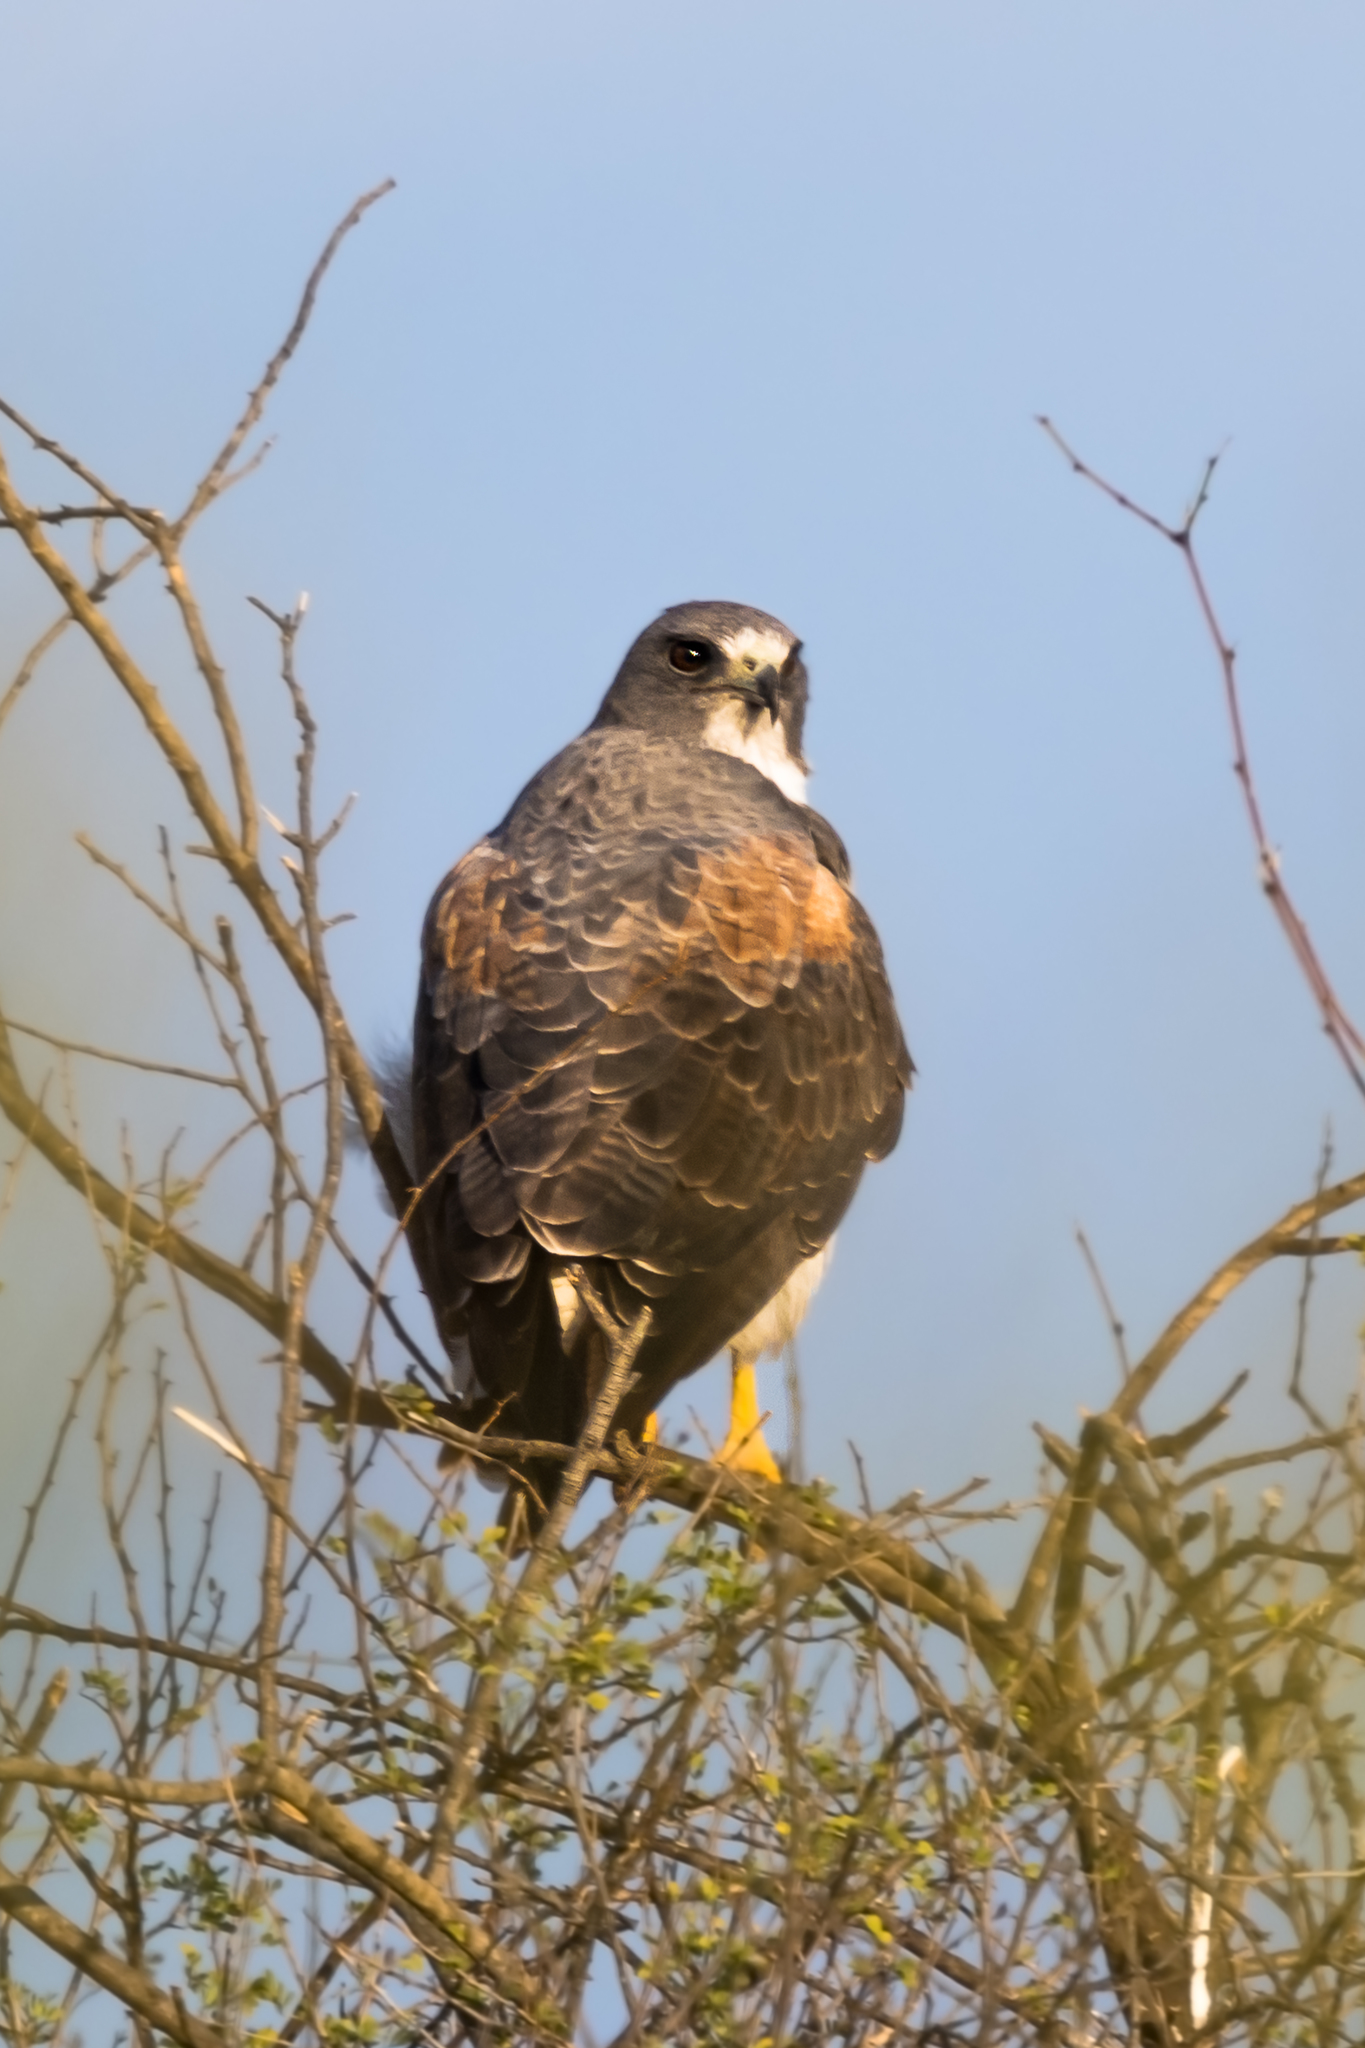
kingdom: Animalia
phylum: Chordata
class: Aves
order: Accipitriformes
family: Accipitridae
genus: Buteo
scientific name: Buteo albicaudatus
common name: White-tailed hawk
